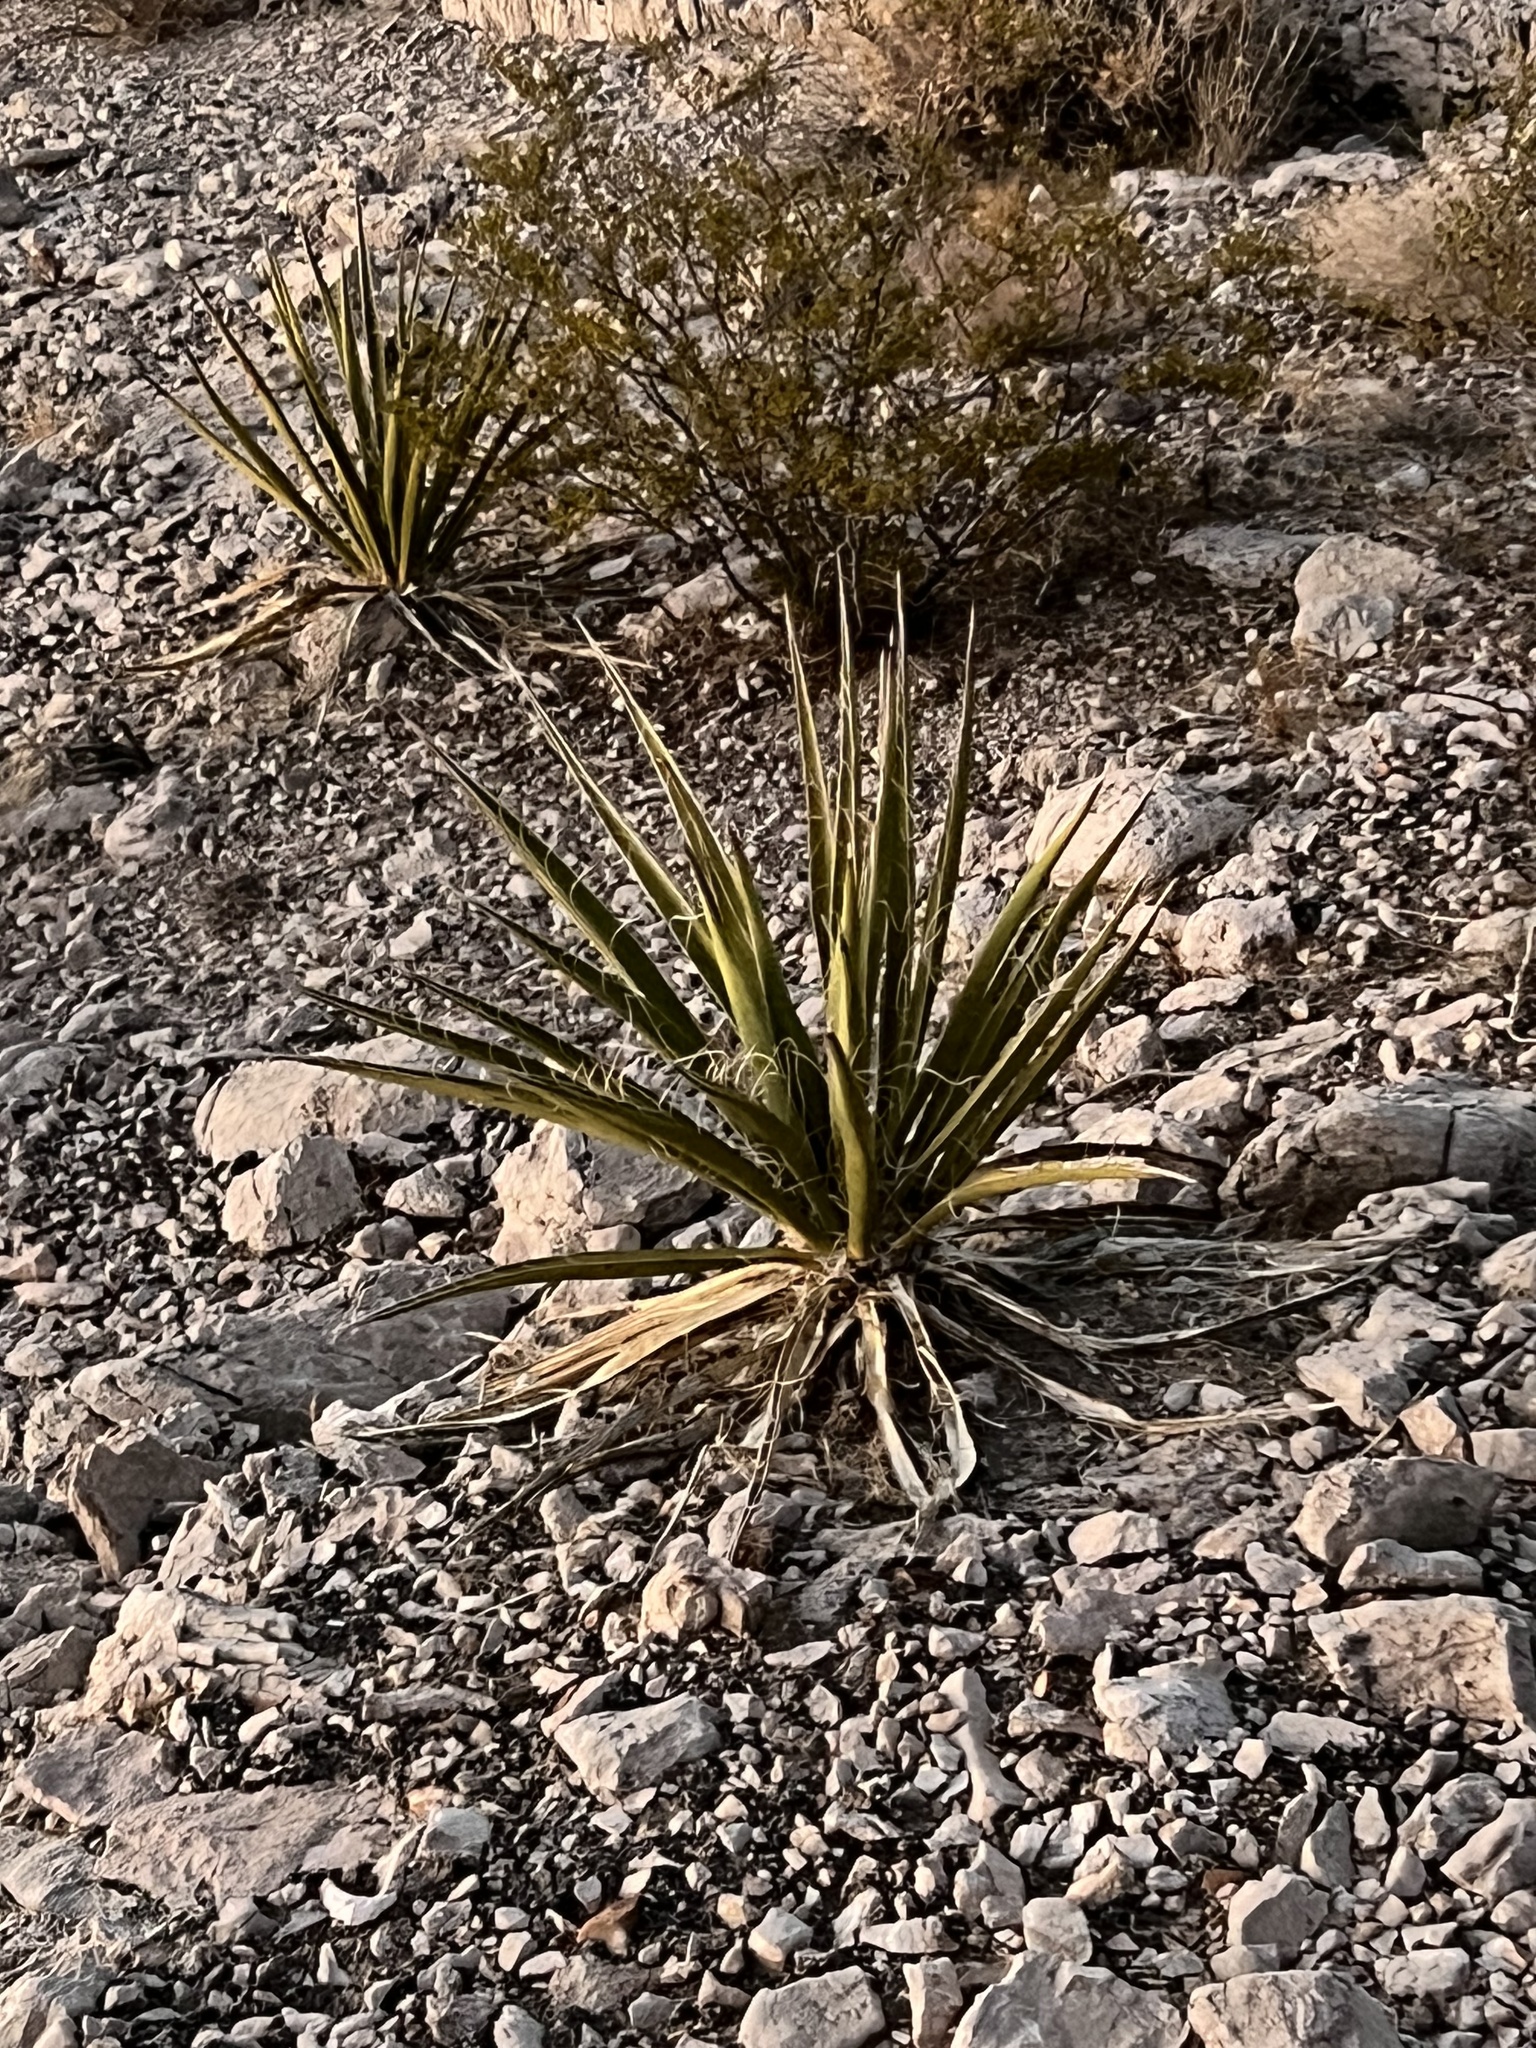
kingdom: Plantae
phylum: Tracheophyta
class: Liliopsida
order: Asparagales
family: Asparagaceae
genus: Yucca
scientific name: Yucca baccata
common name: Banana yucca
